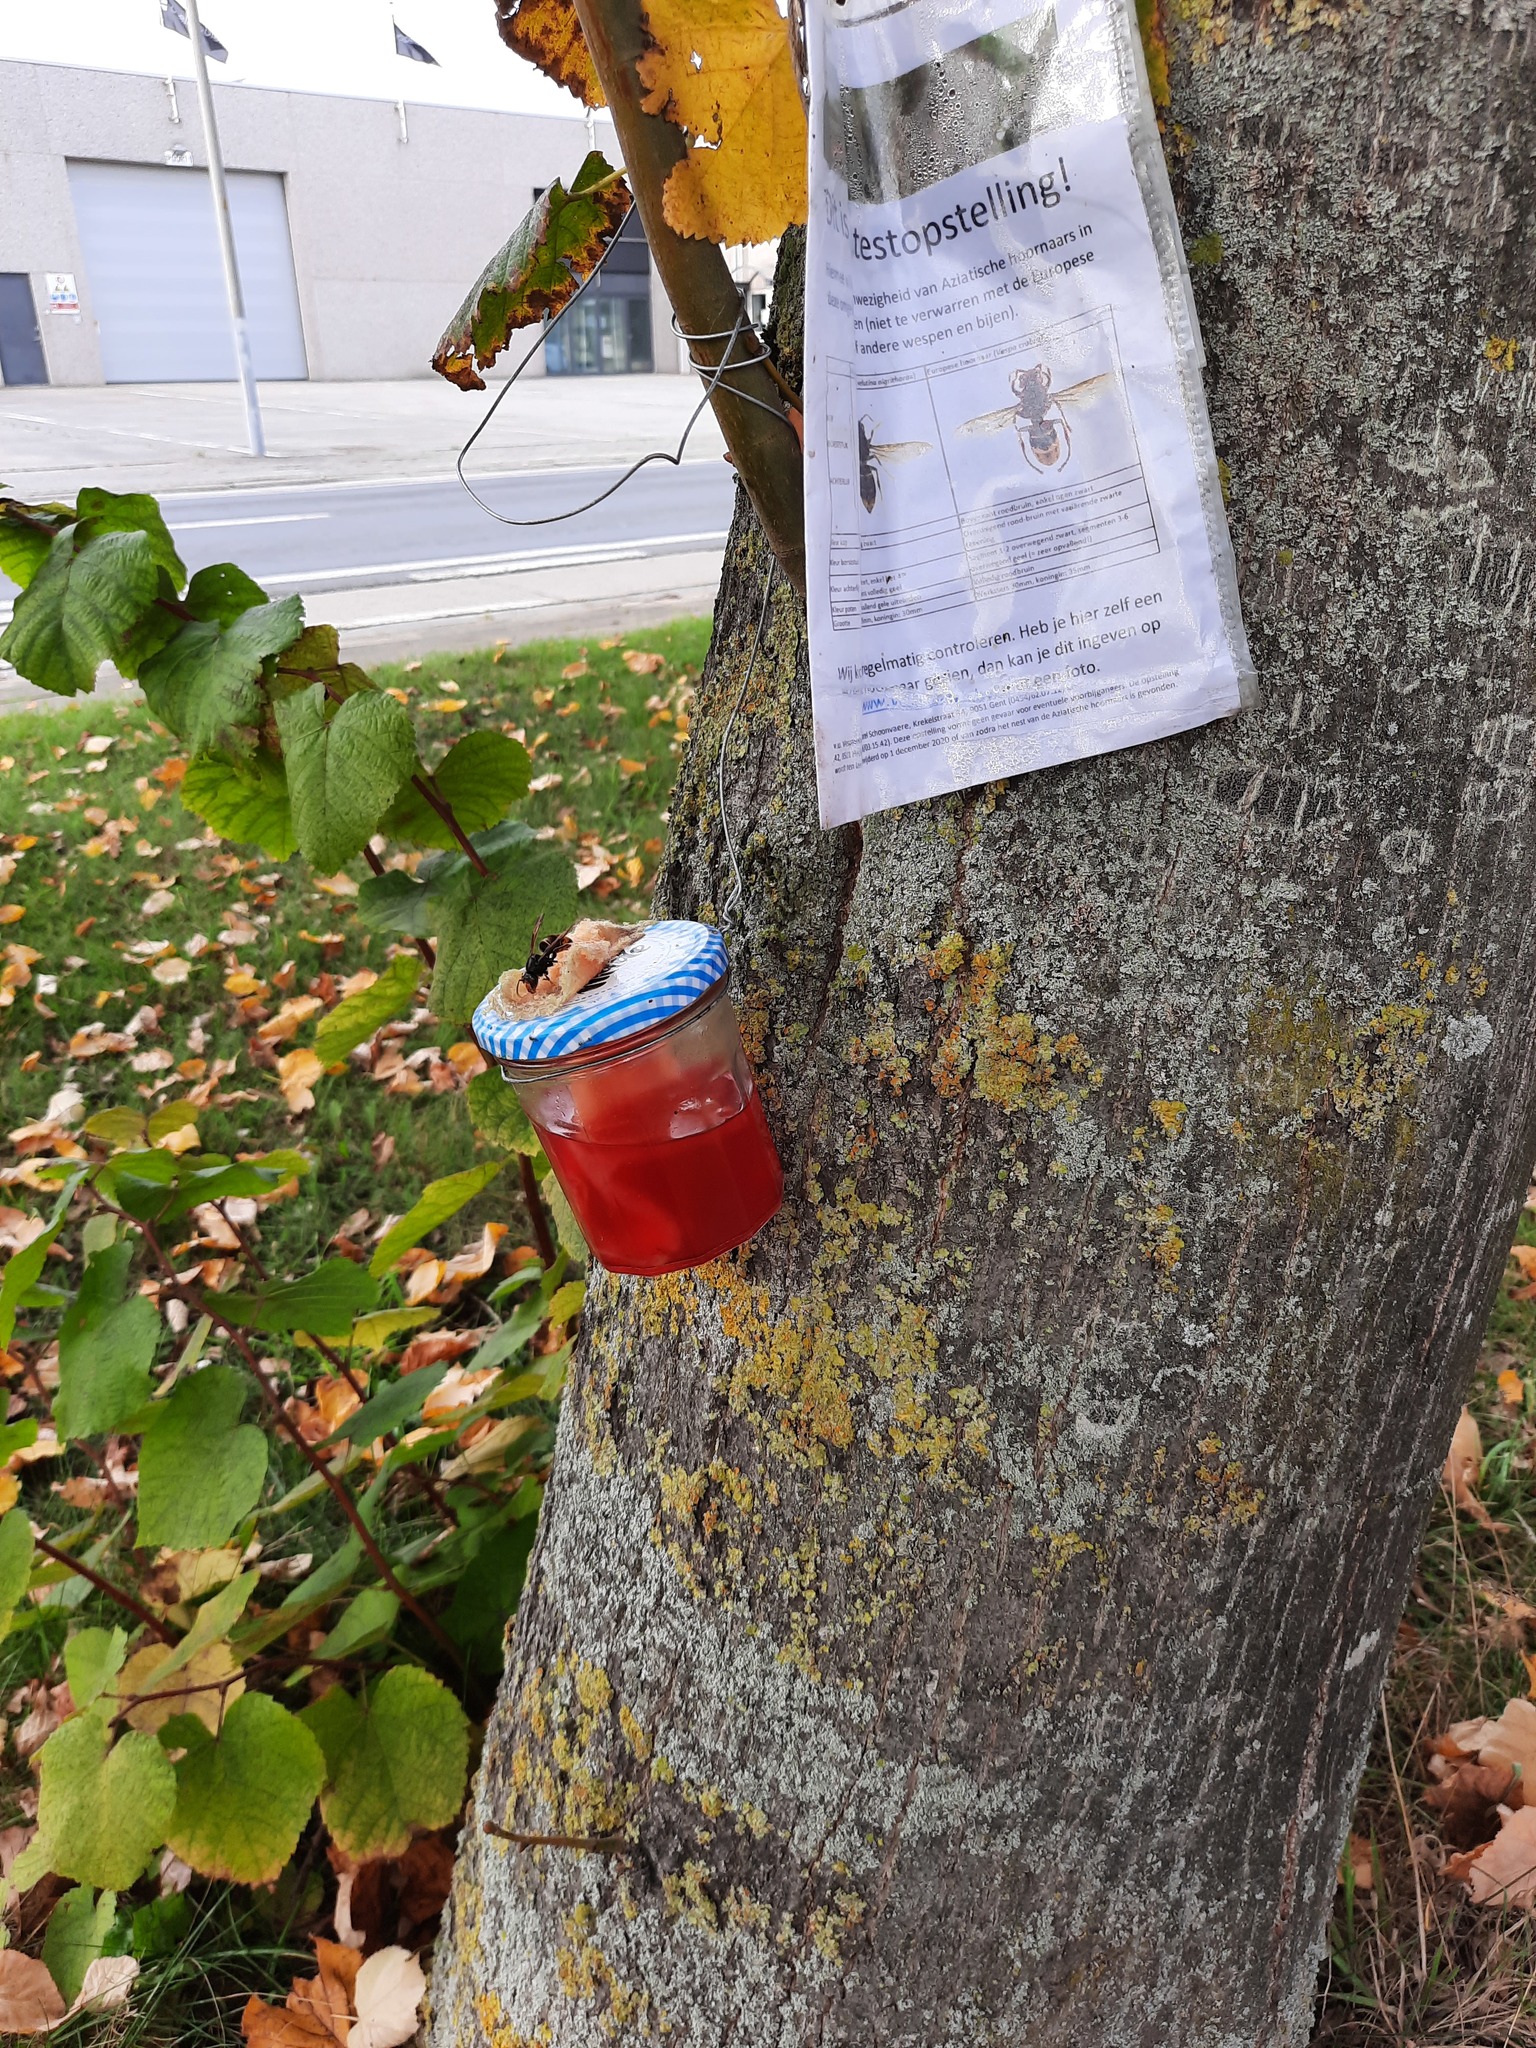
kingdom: Animalia
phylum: Arthropoda
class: Insecta
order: Hymenoptera
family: Vespidae
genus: Vespa
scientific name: Vespa velutina
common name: Asian hornet
